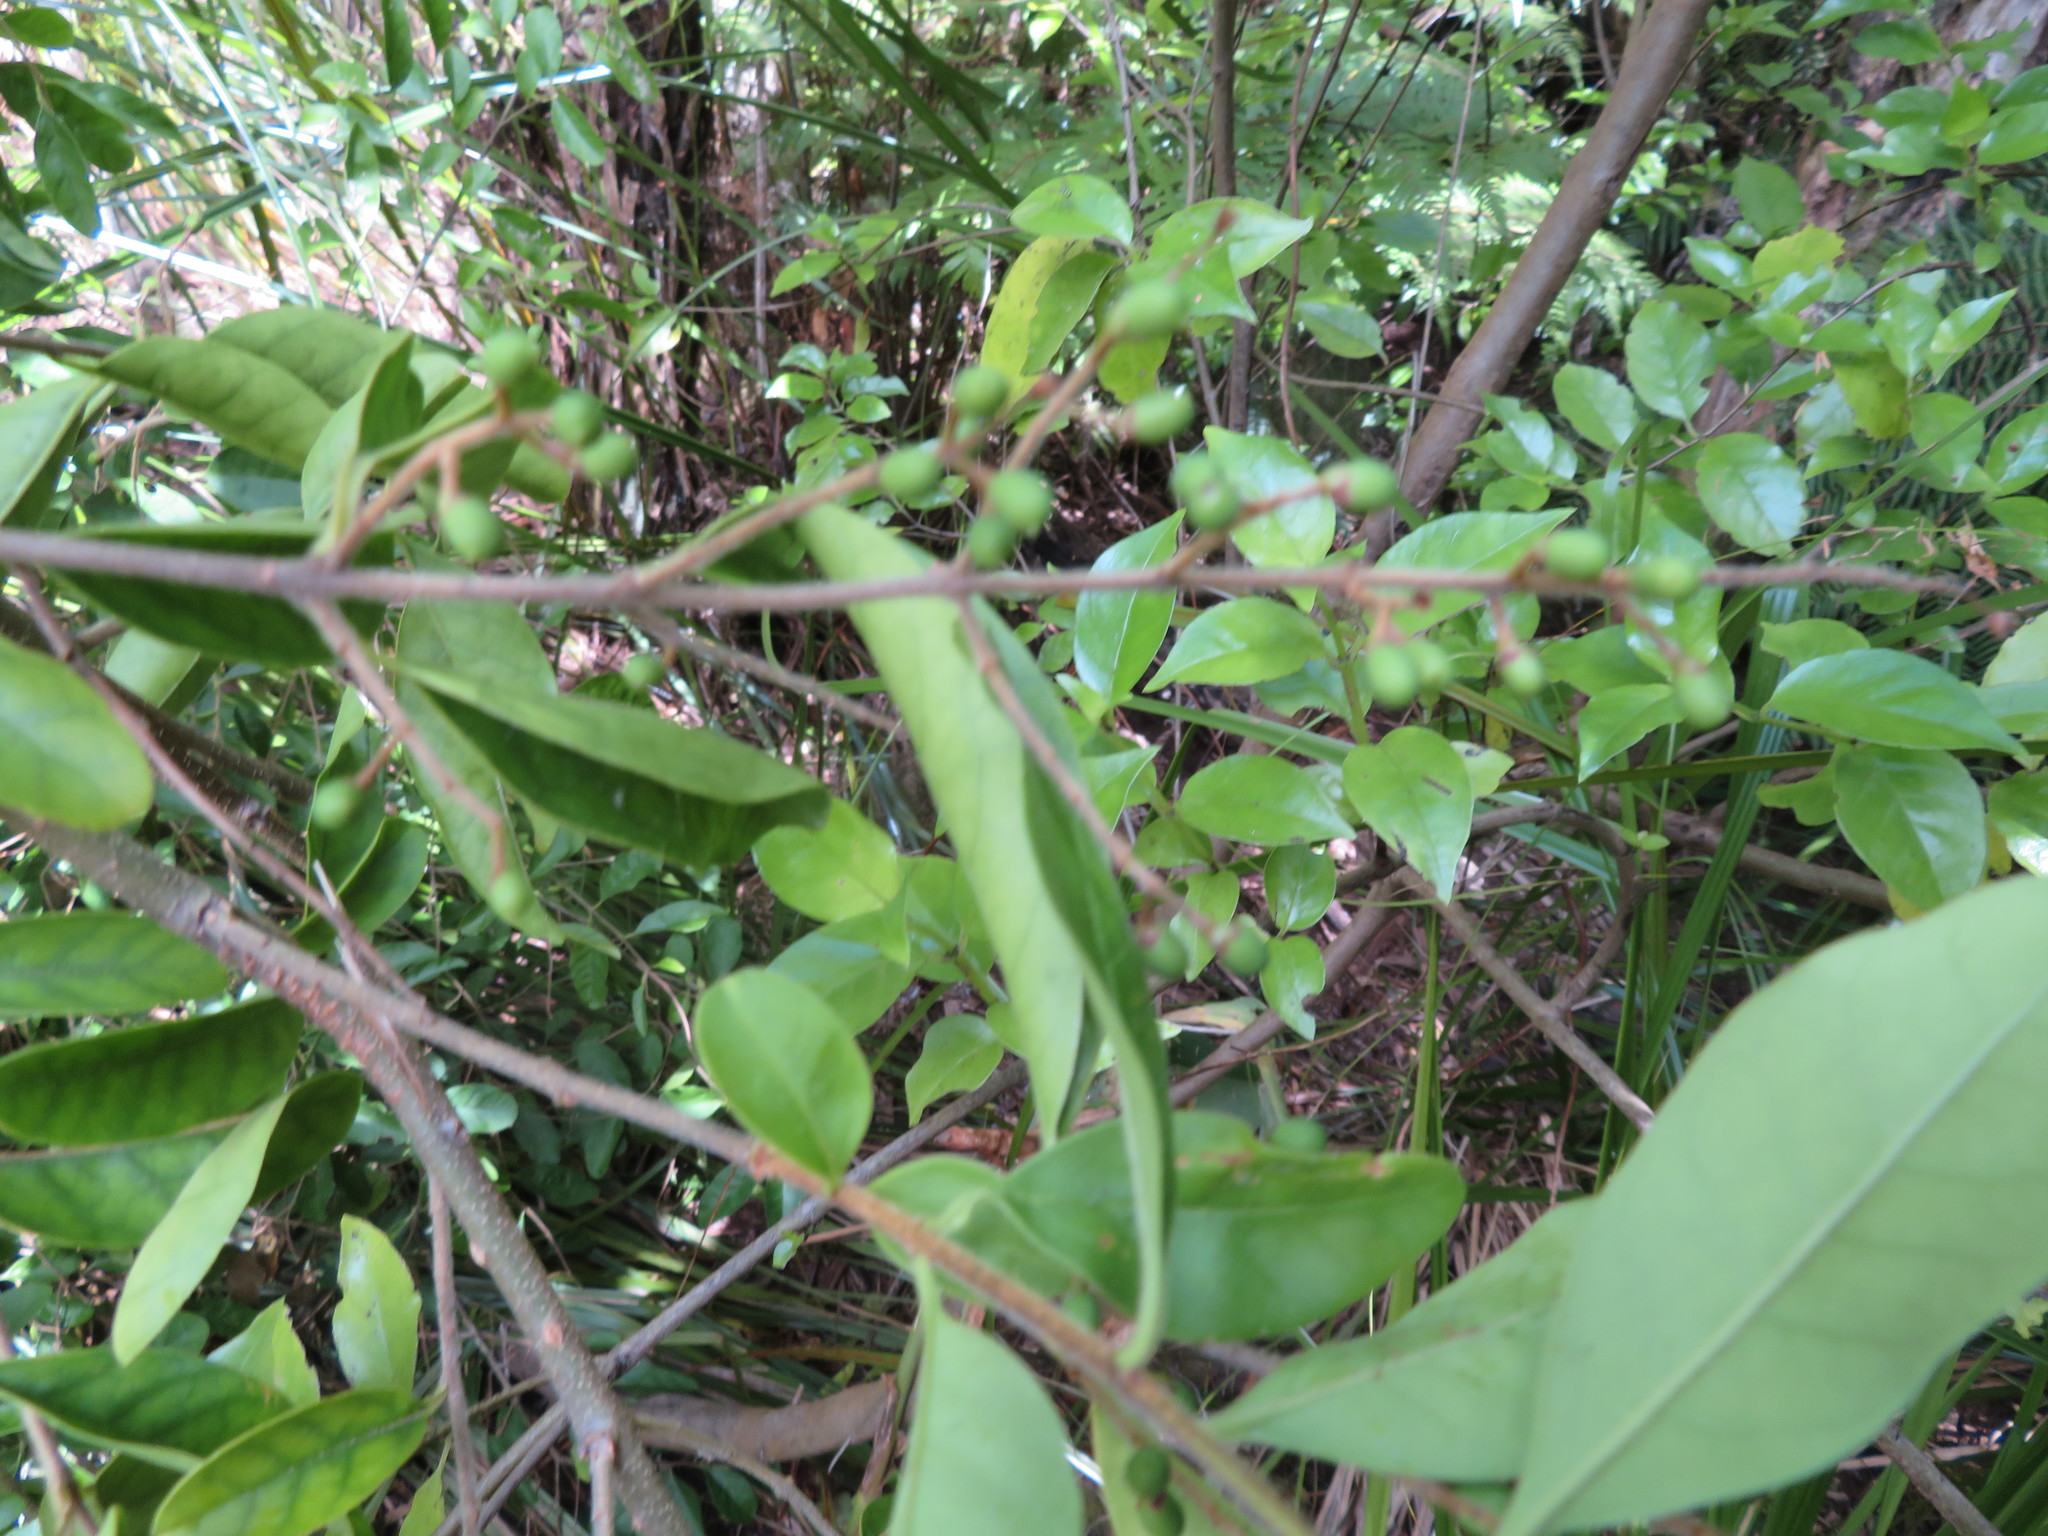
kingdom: Plantae
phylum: Tracheophyta
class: Magnoliopsida
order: Lamiales
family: Oleaceae
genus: Ligustrum
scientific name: Ligustrum sinense
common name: Chinese privet
